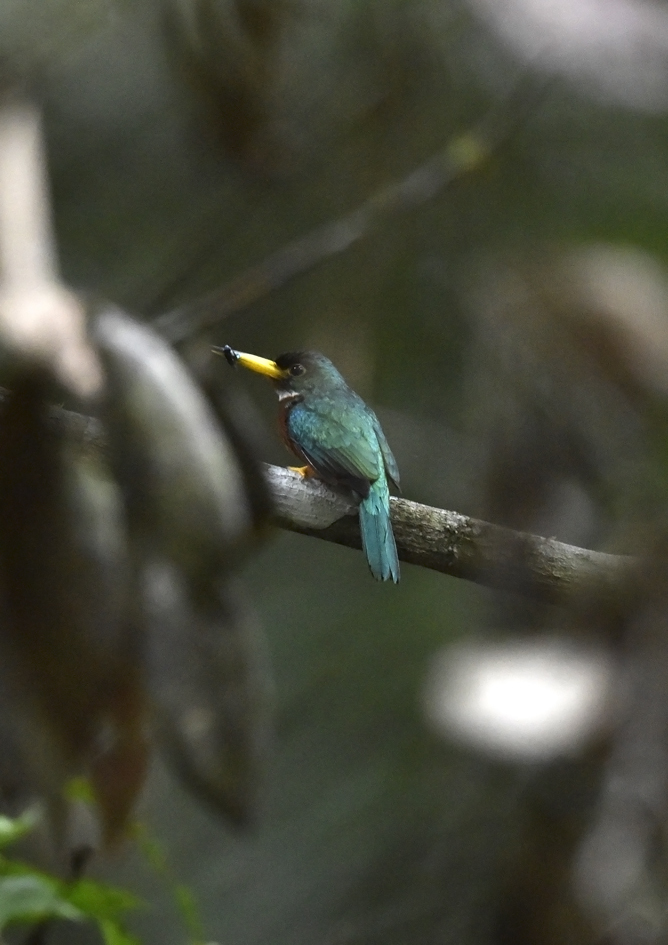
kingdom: Animalia
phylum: Chordata
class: Aves
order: Piciformes
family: Galbulidae
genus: Galbula
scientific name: Galbula albirostris
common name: Yellow-billed jacamar
